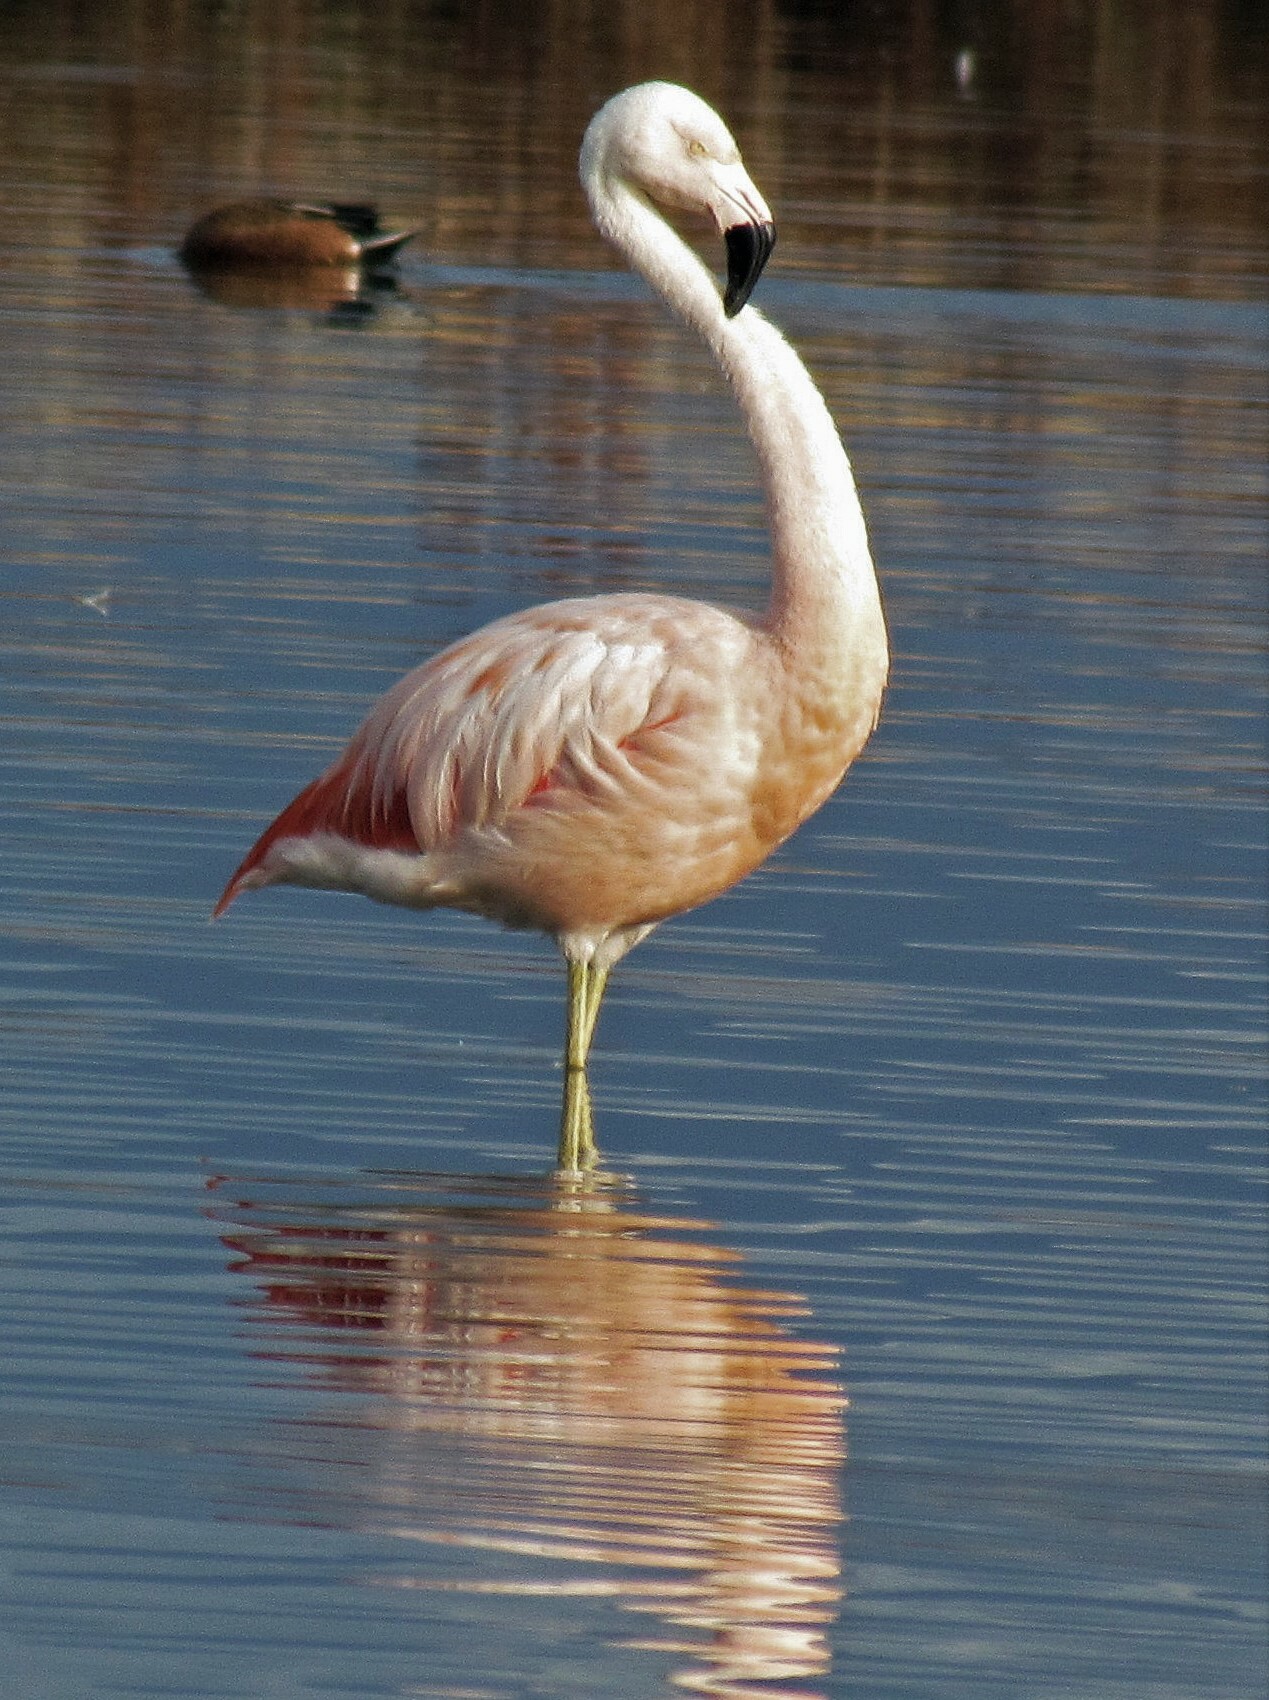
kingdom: Animalia
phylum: Chordata
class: Aves
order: Phoenicopteriformes
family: Phoenicopteridae
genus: Phoenicopterus
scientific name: Phoenicopterus chilensis
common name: Chilean flamingo
